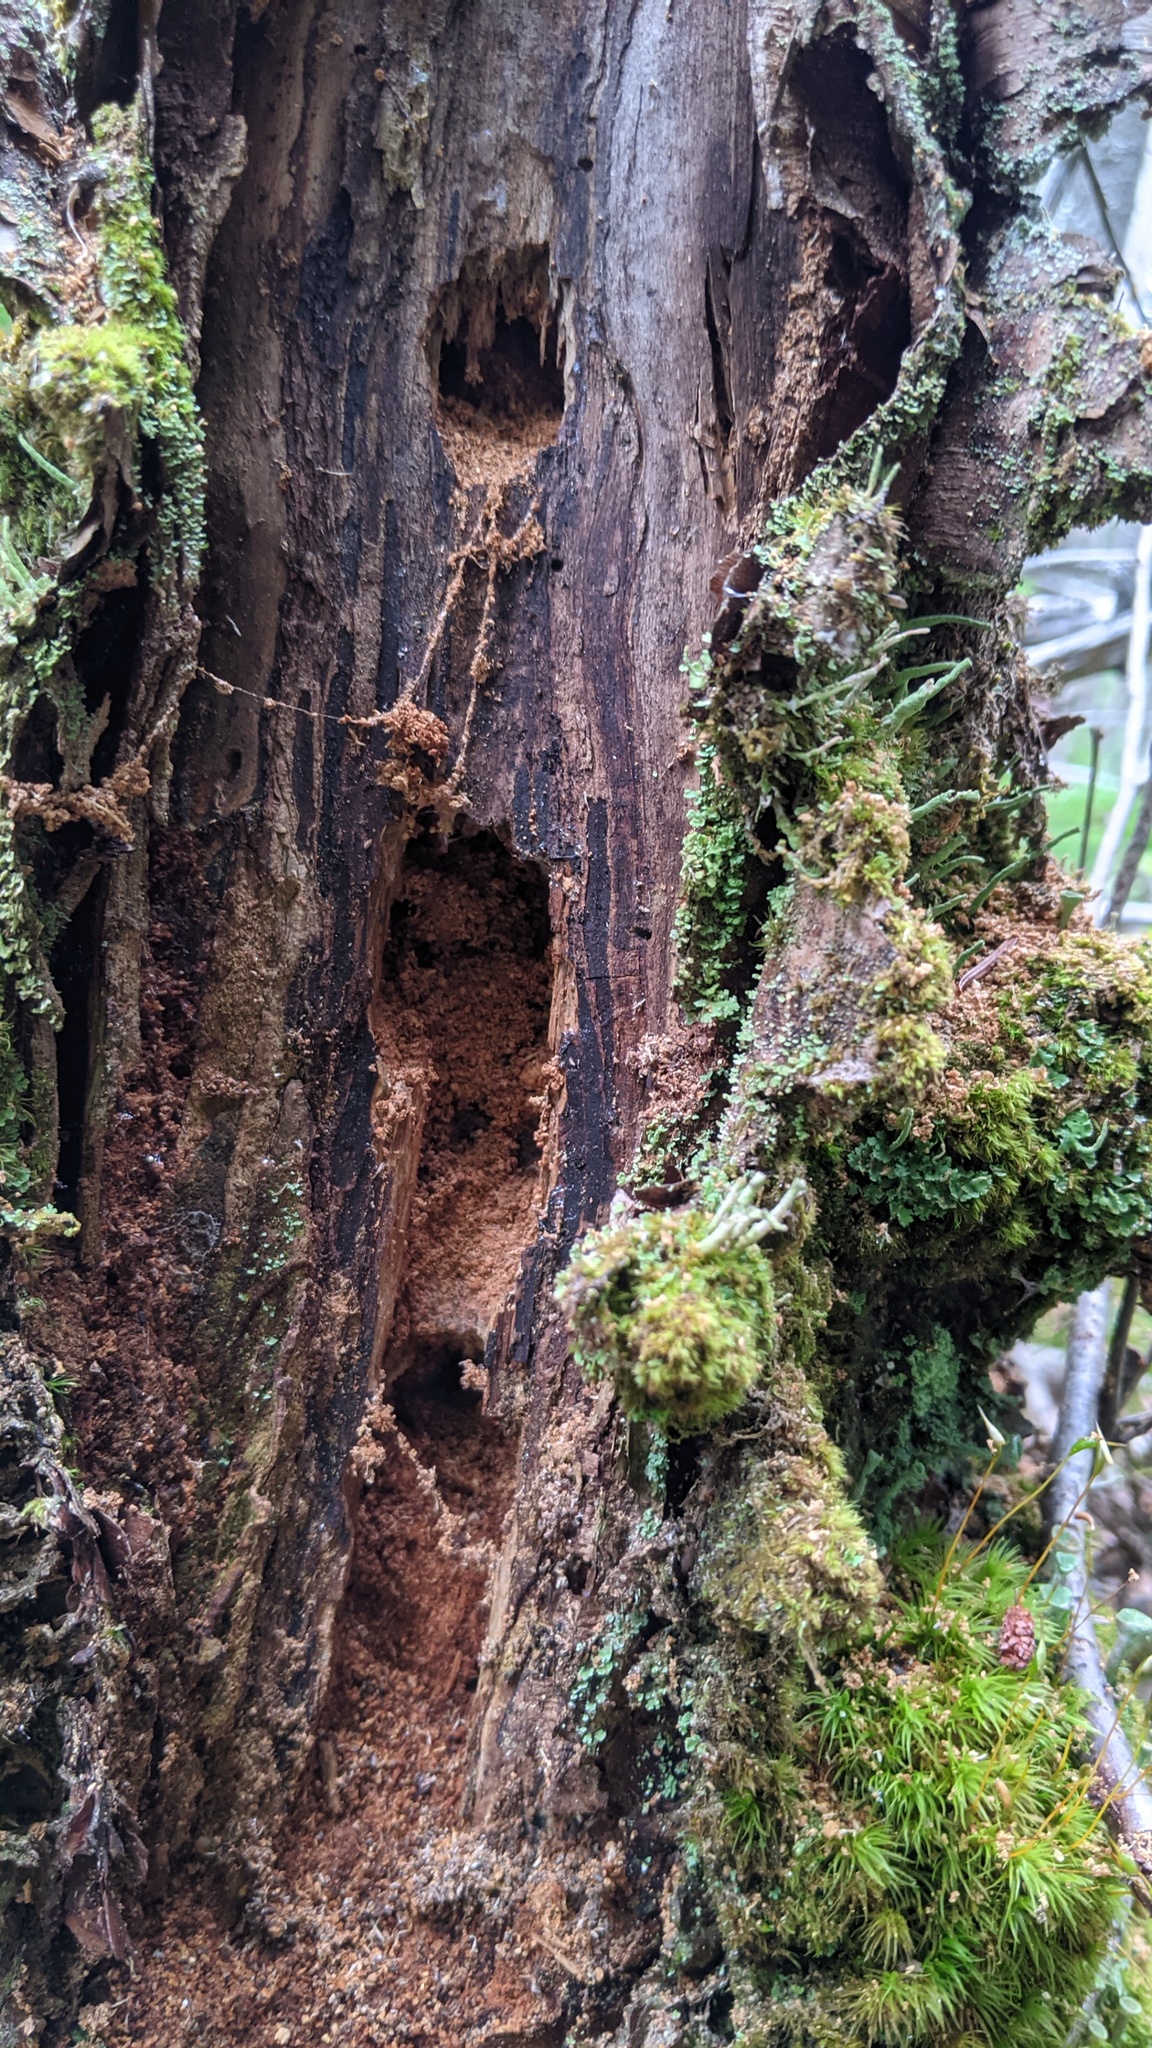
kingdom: Animalia
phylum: Chordata
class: Aves
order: Piciformes
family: Picidae
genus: Dryocopus
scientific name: Dryocopus pileatus
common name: Pileated woodpecker
